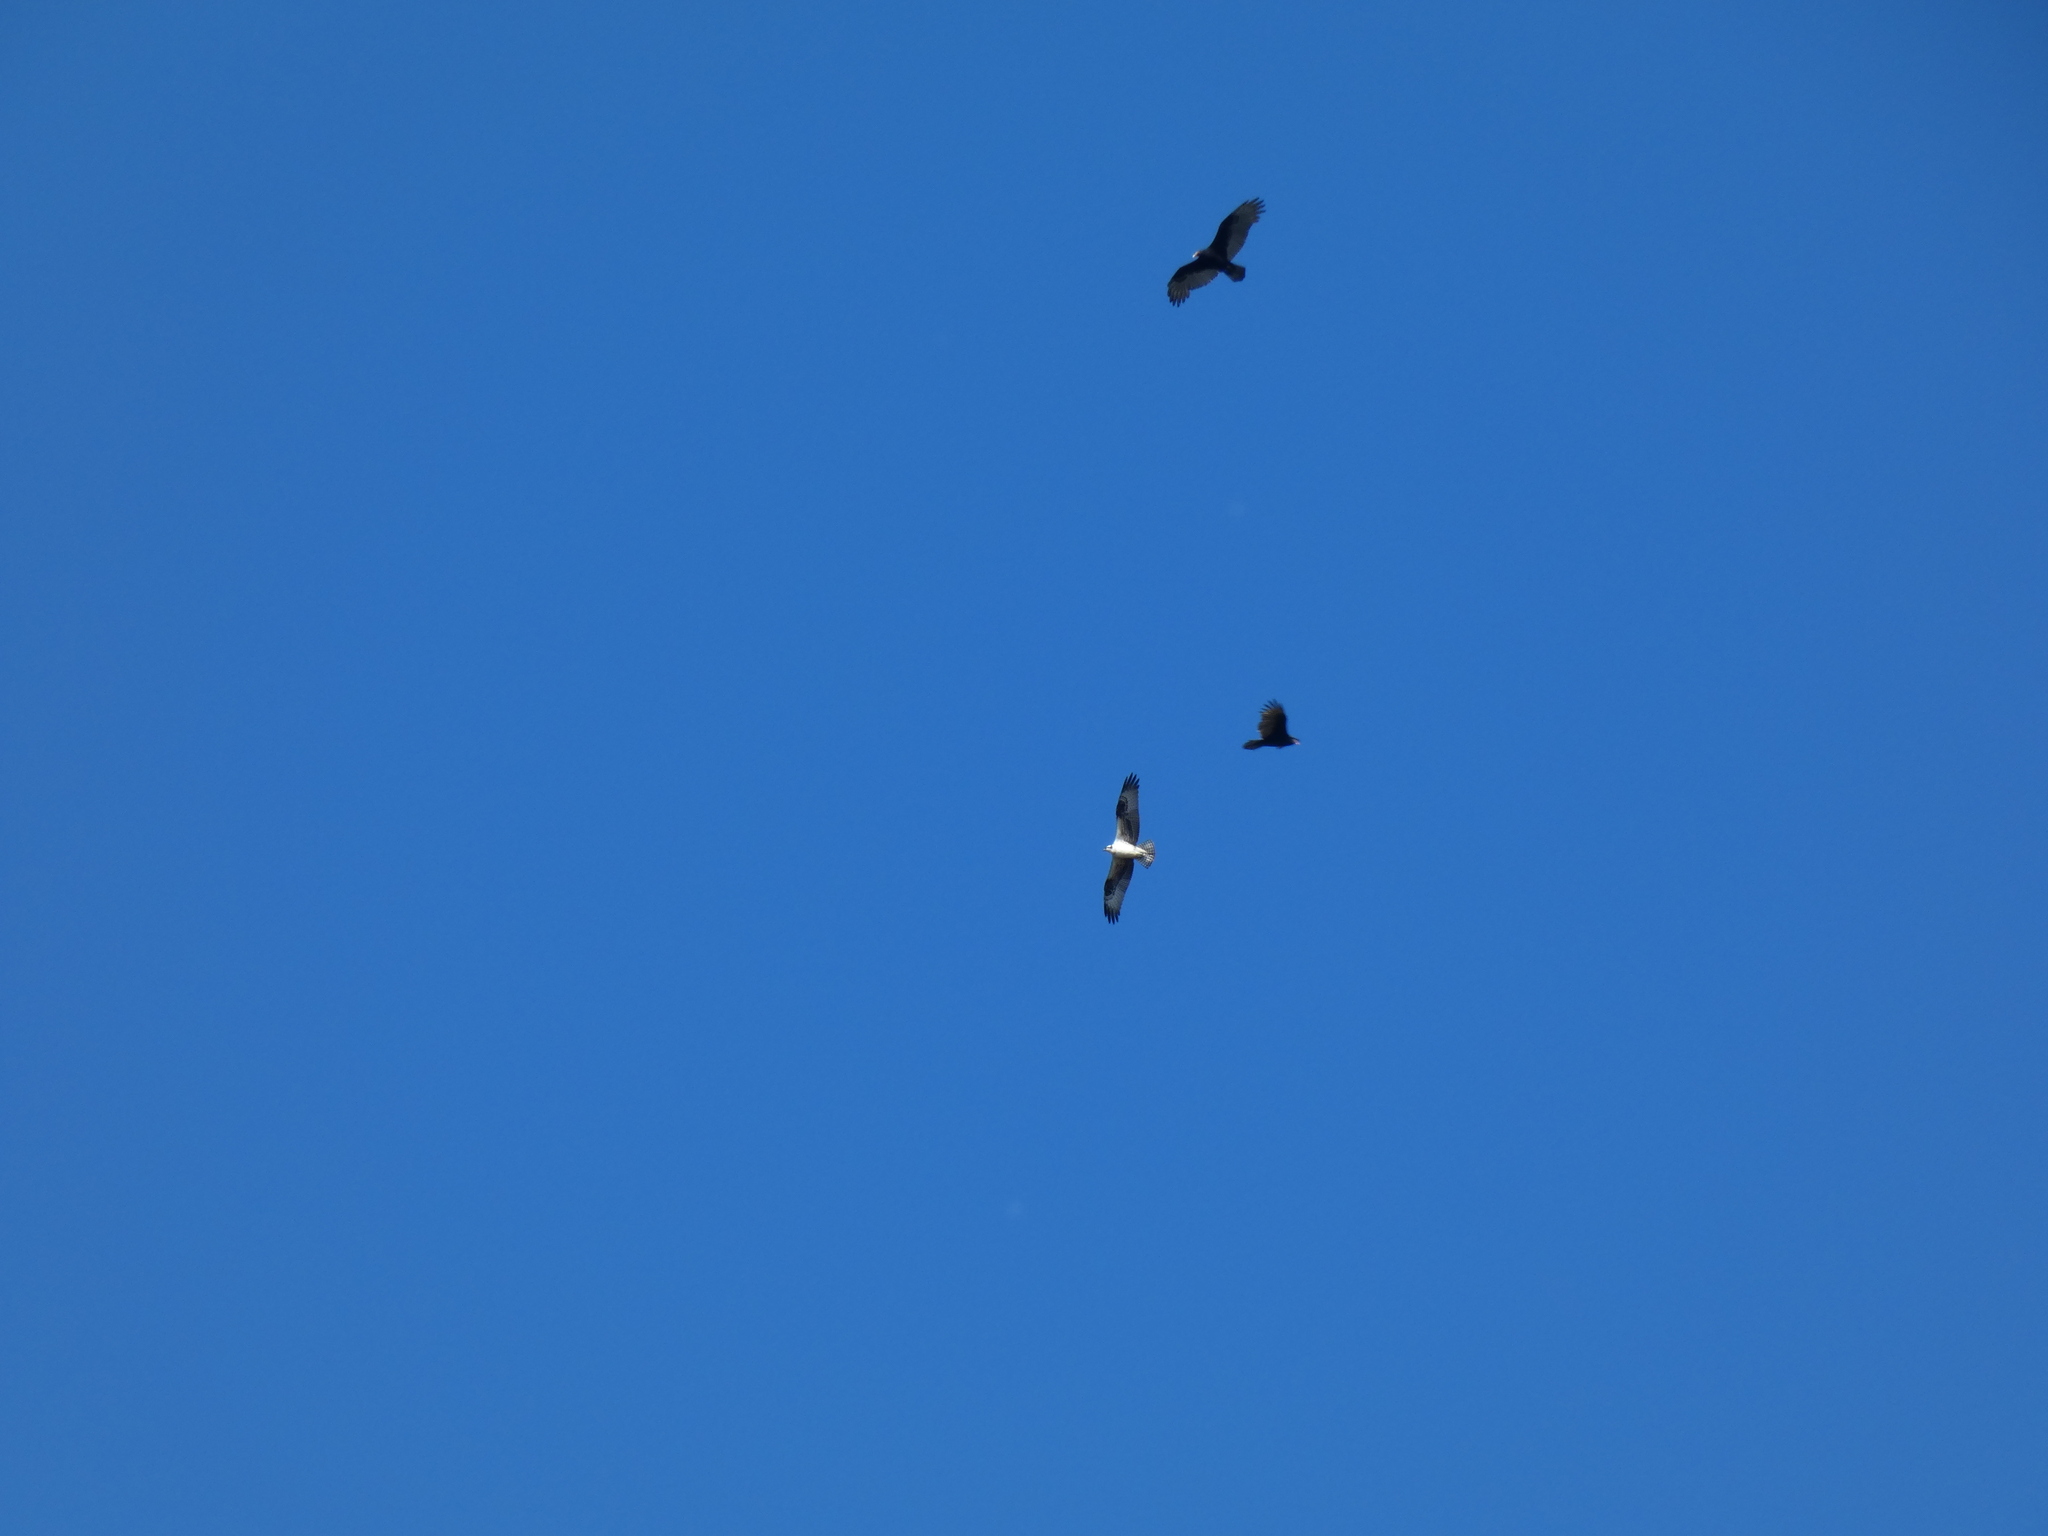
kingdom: Animalia
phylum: Chordata
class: Aves
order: Accipitriformes
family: Cathartidae
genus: Cathartes
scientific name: Cathartes aura
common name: Turkey vulture
